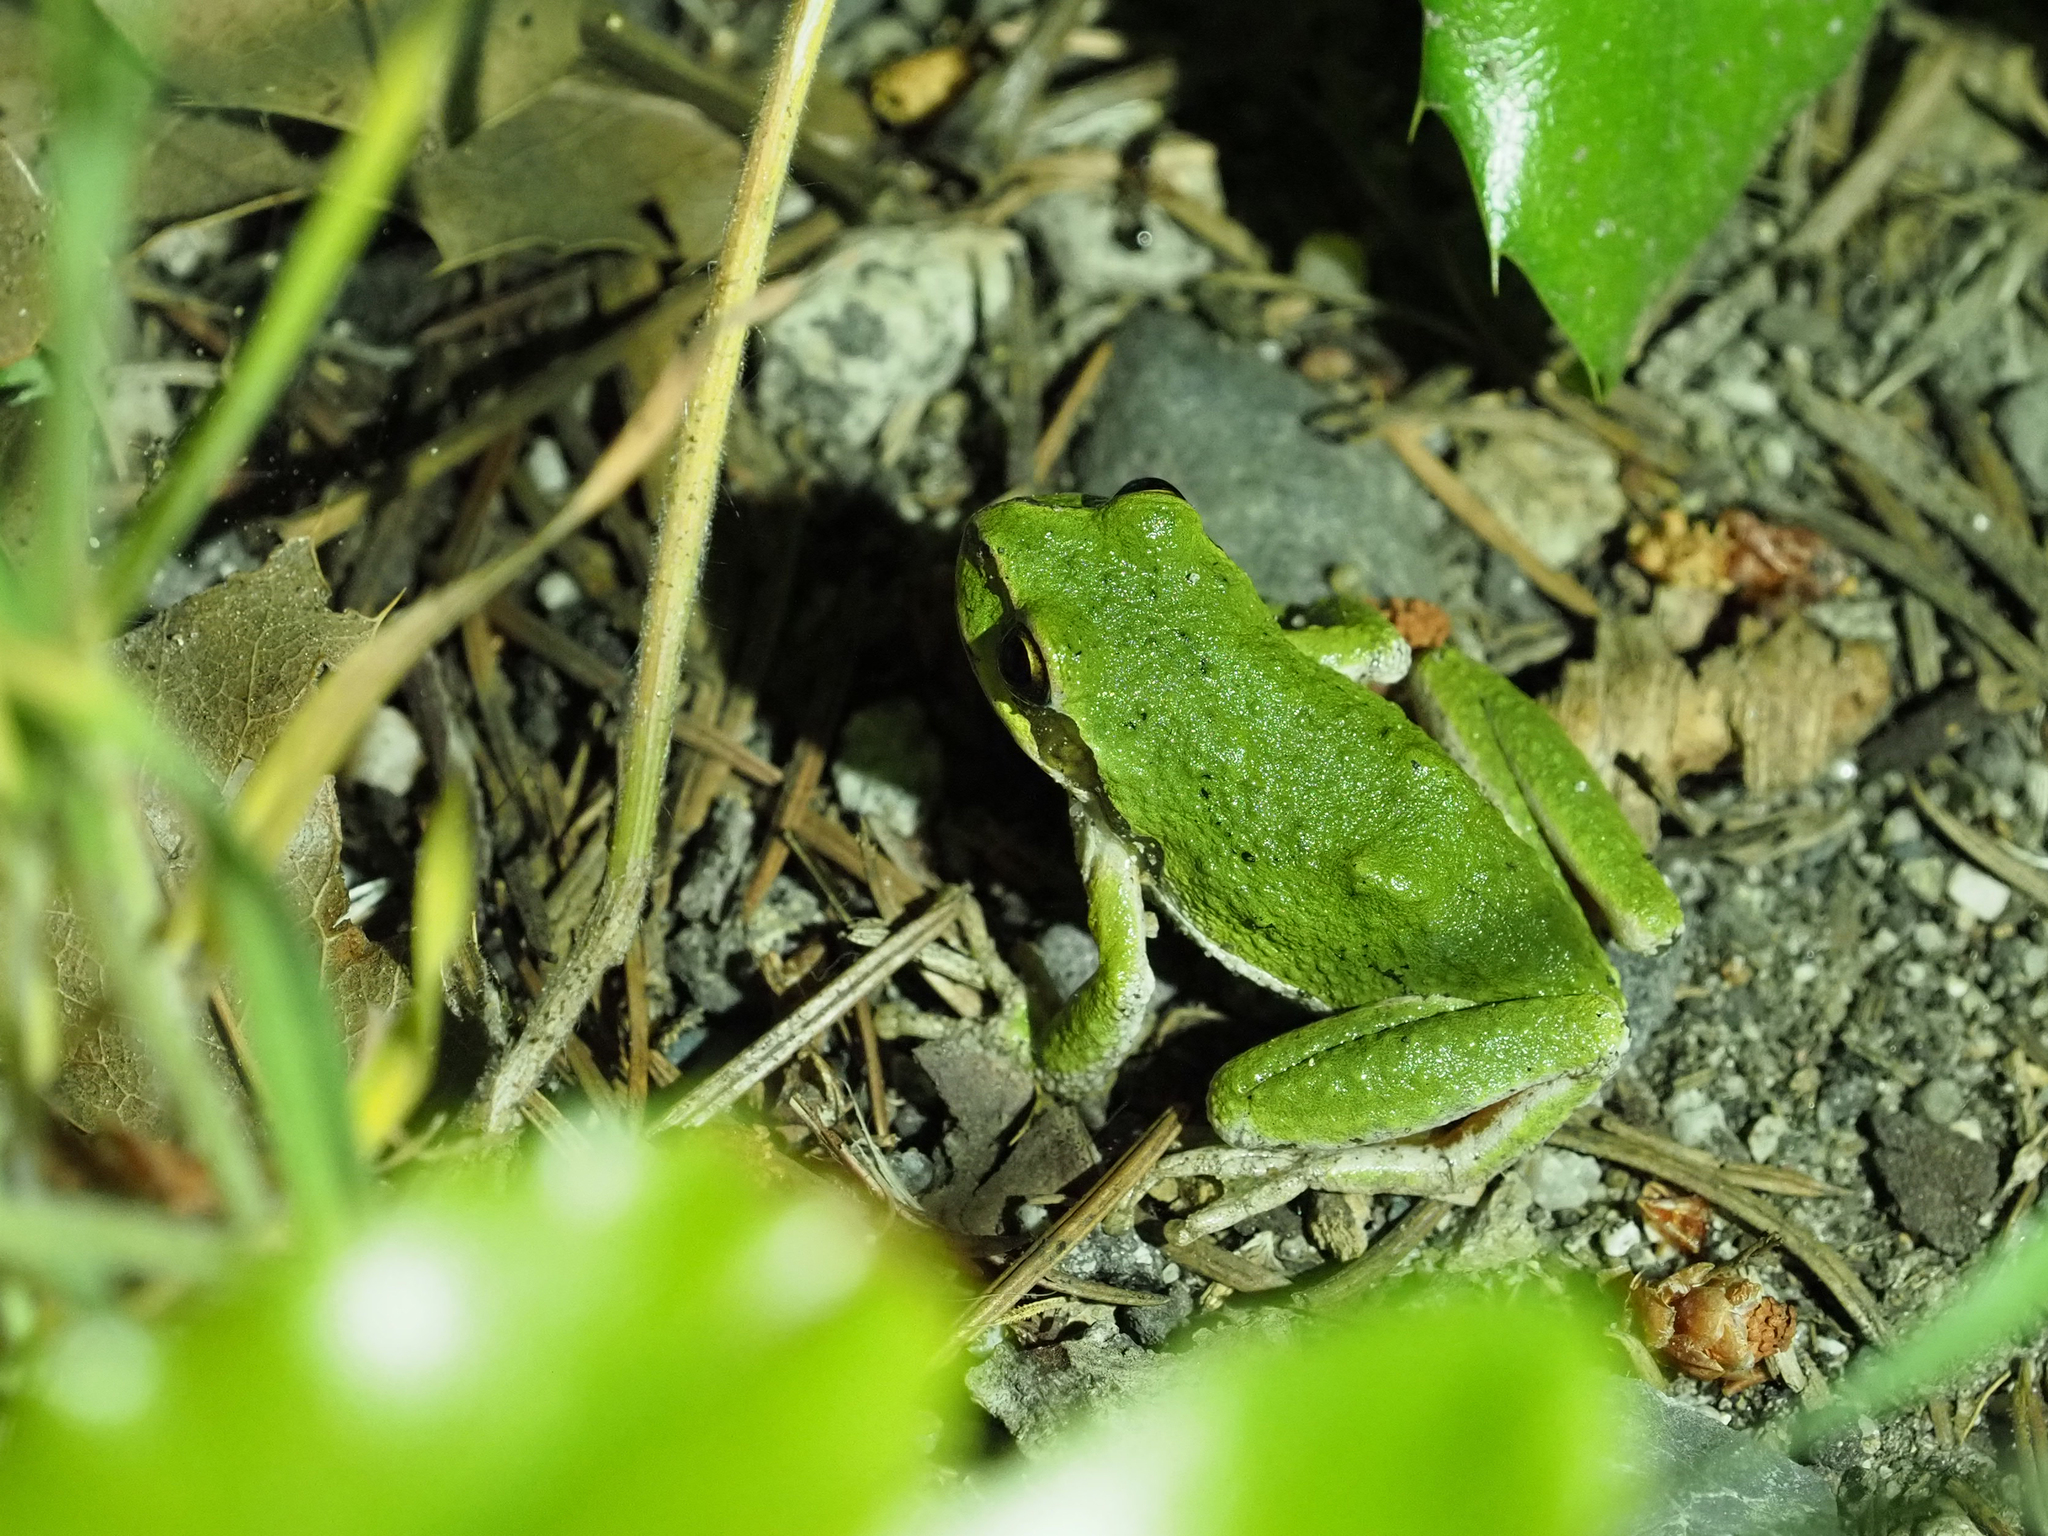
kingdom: Animalia
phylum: Chordata
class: Amphibia
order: Anura
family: Hylidae
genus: Pseudacris
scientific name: Pseudacris regilla
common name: Pacific chorus frog
